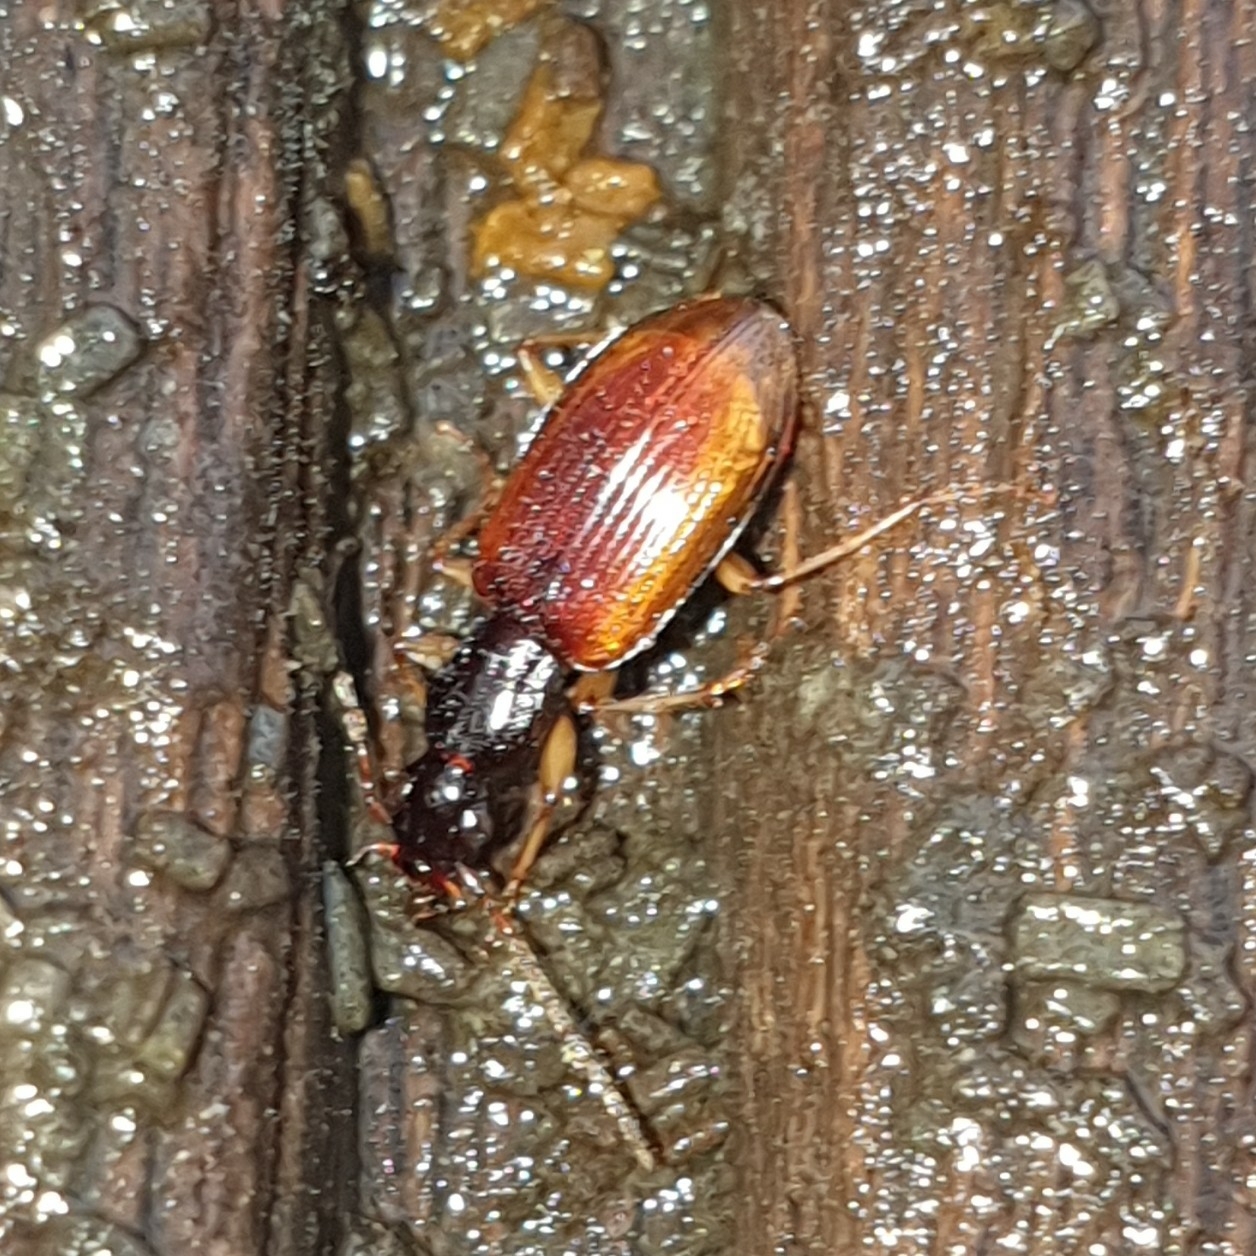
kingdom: Animalia
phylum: Arthropoda
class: Insecta
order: Coleoptera
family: Carabidae
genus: Oxypselaphus
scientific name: Oxypselaphus obscurus
